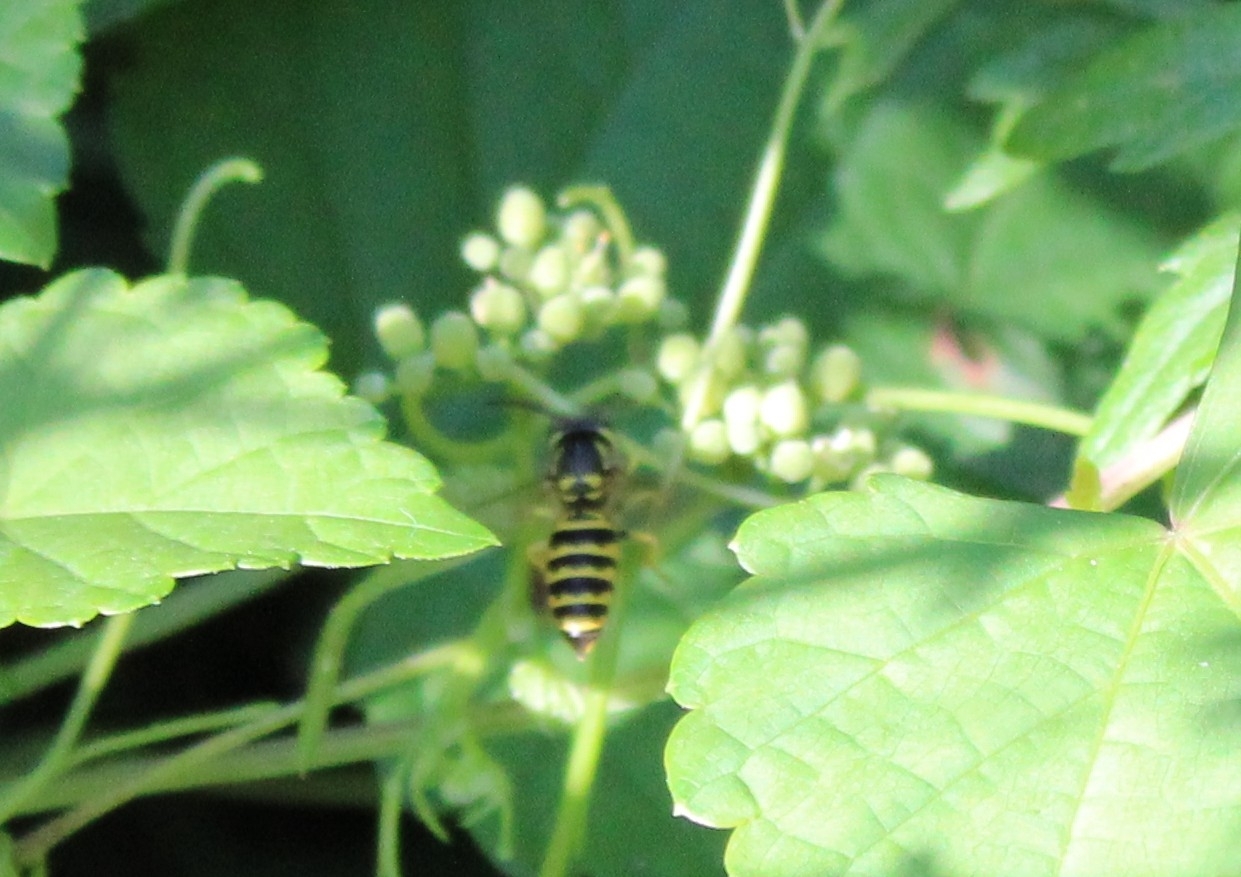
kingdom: Animalia
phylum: Arthropoda
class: Insecta
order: Hymenoptera
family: Vespidae
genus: Vespula
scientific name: Vespula maculifrons
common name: Eastern yellowjacket
